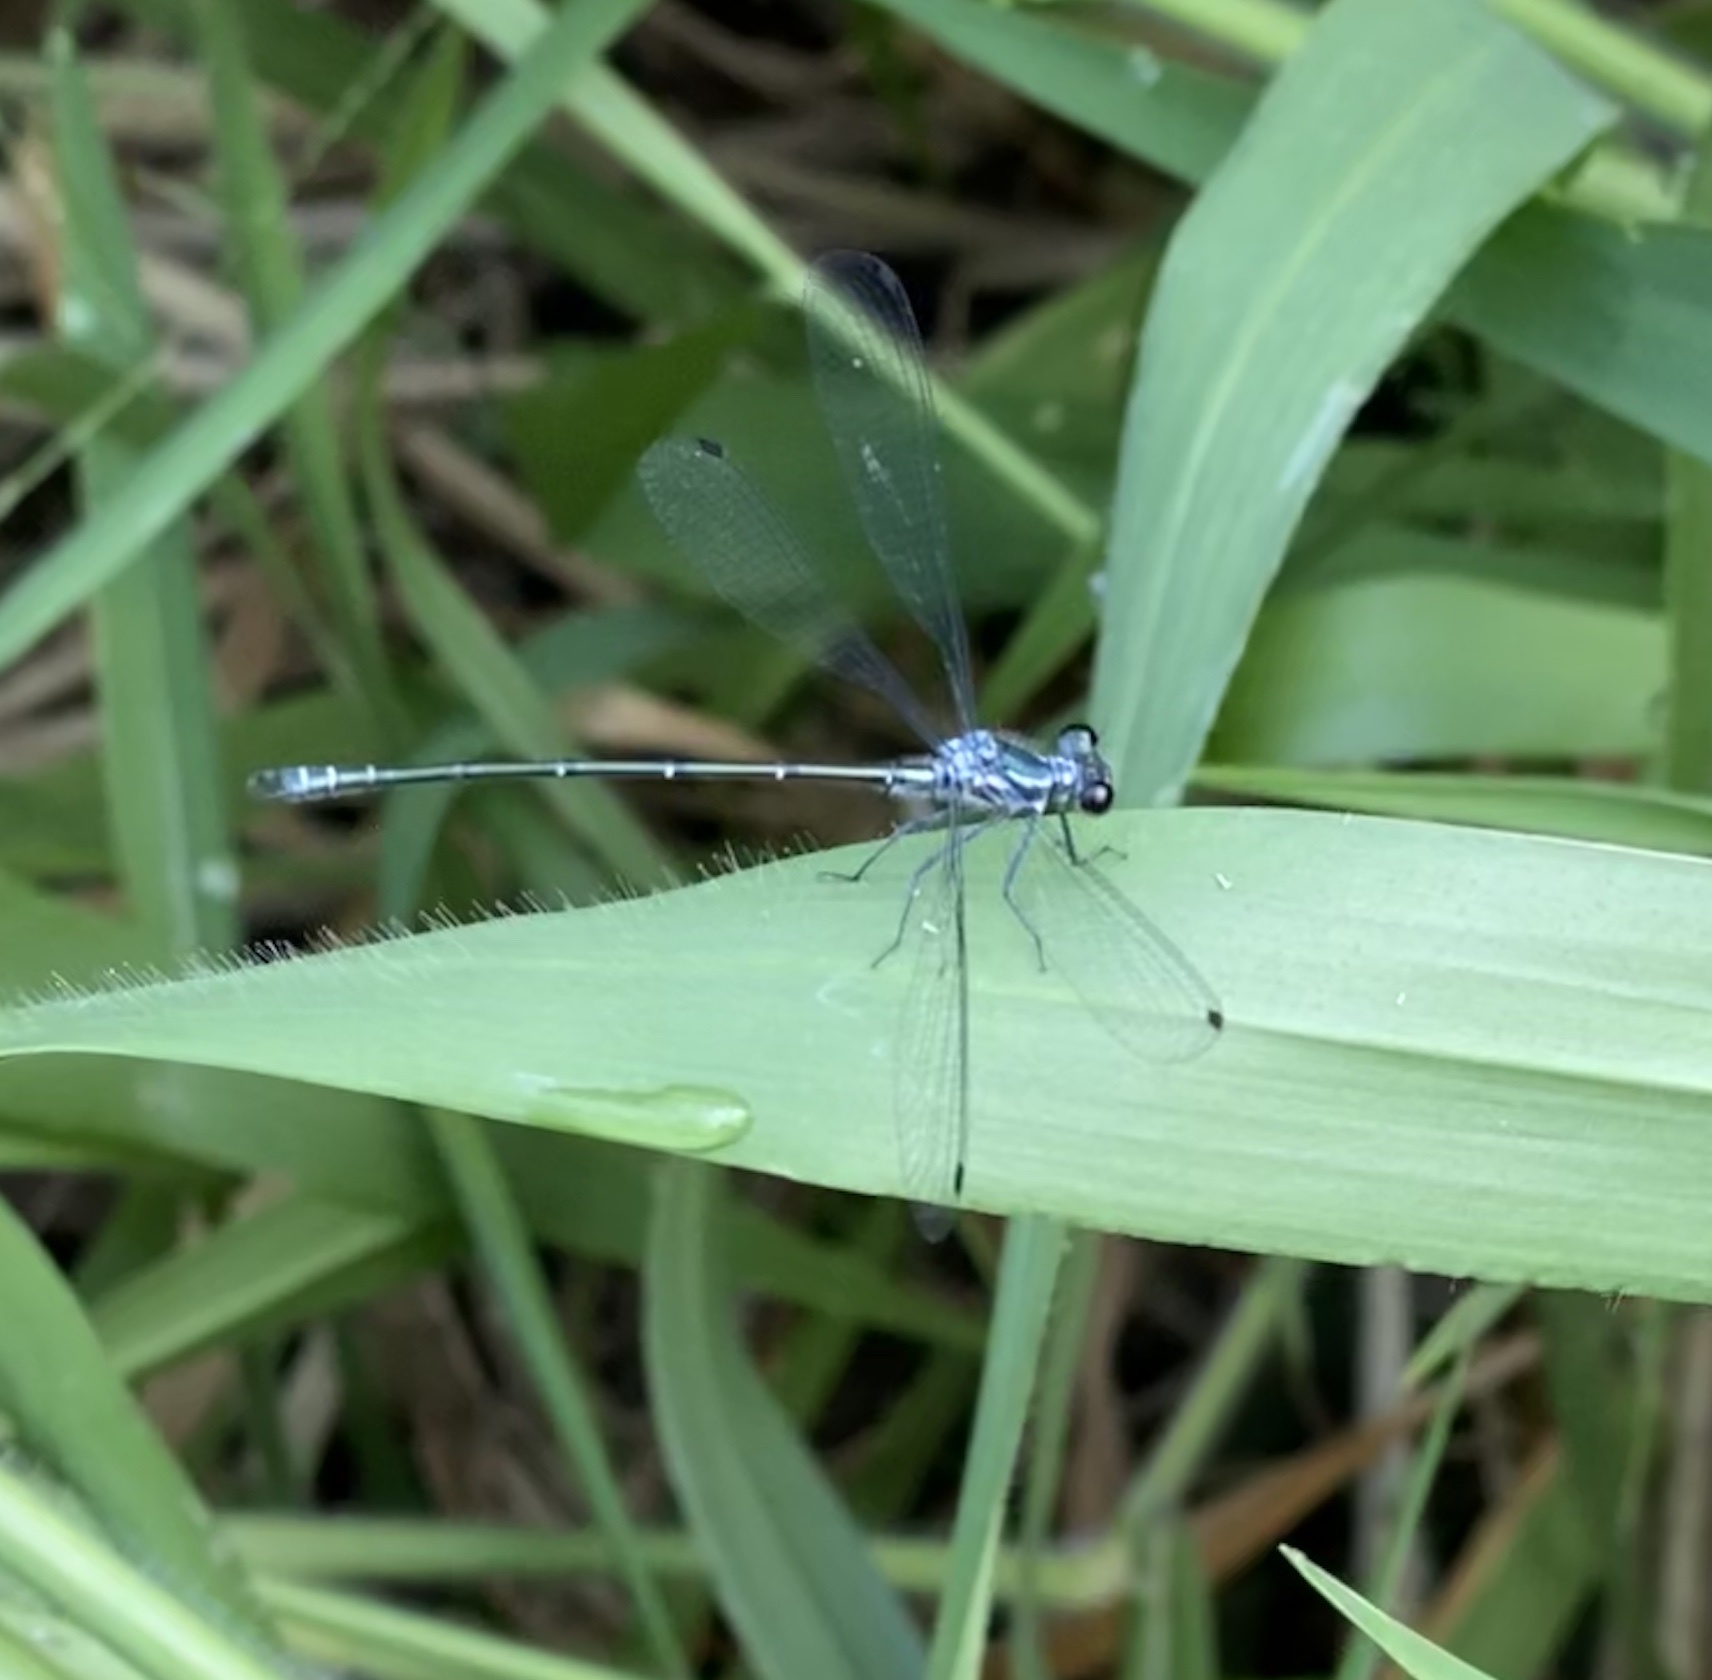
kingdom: Animalia
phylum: Arthropoda
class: Insecta
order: Odonata
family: Argiolestidae
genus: Austroargiolestes
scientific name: Austroargiolestes icteromelas
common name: Common flatwing
